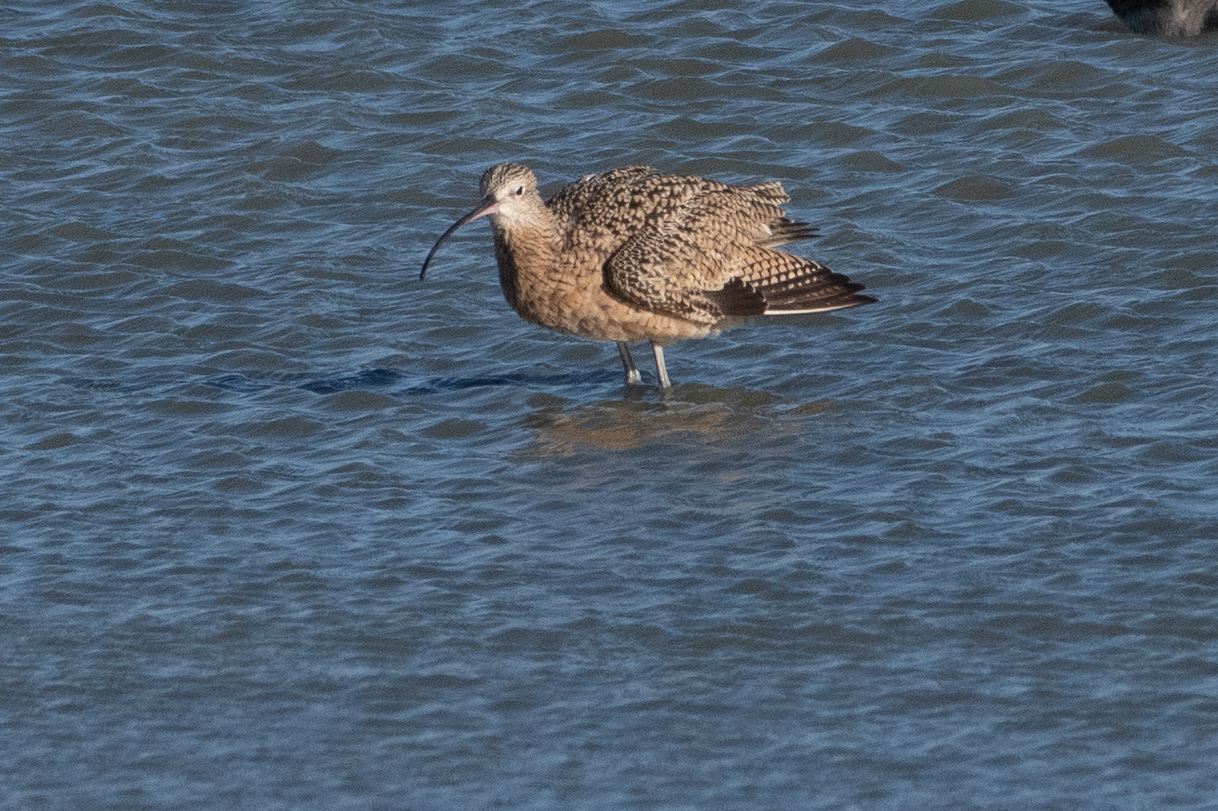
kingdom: Animalia
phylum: Chordata
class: Aves
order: Charadriiformes
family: Scolopacidae
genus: Numenius
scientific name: Numenius americanus
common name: Long-billed curlew
